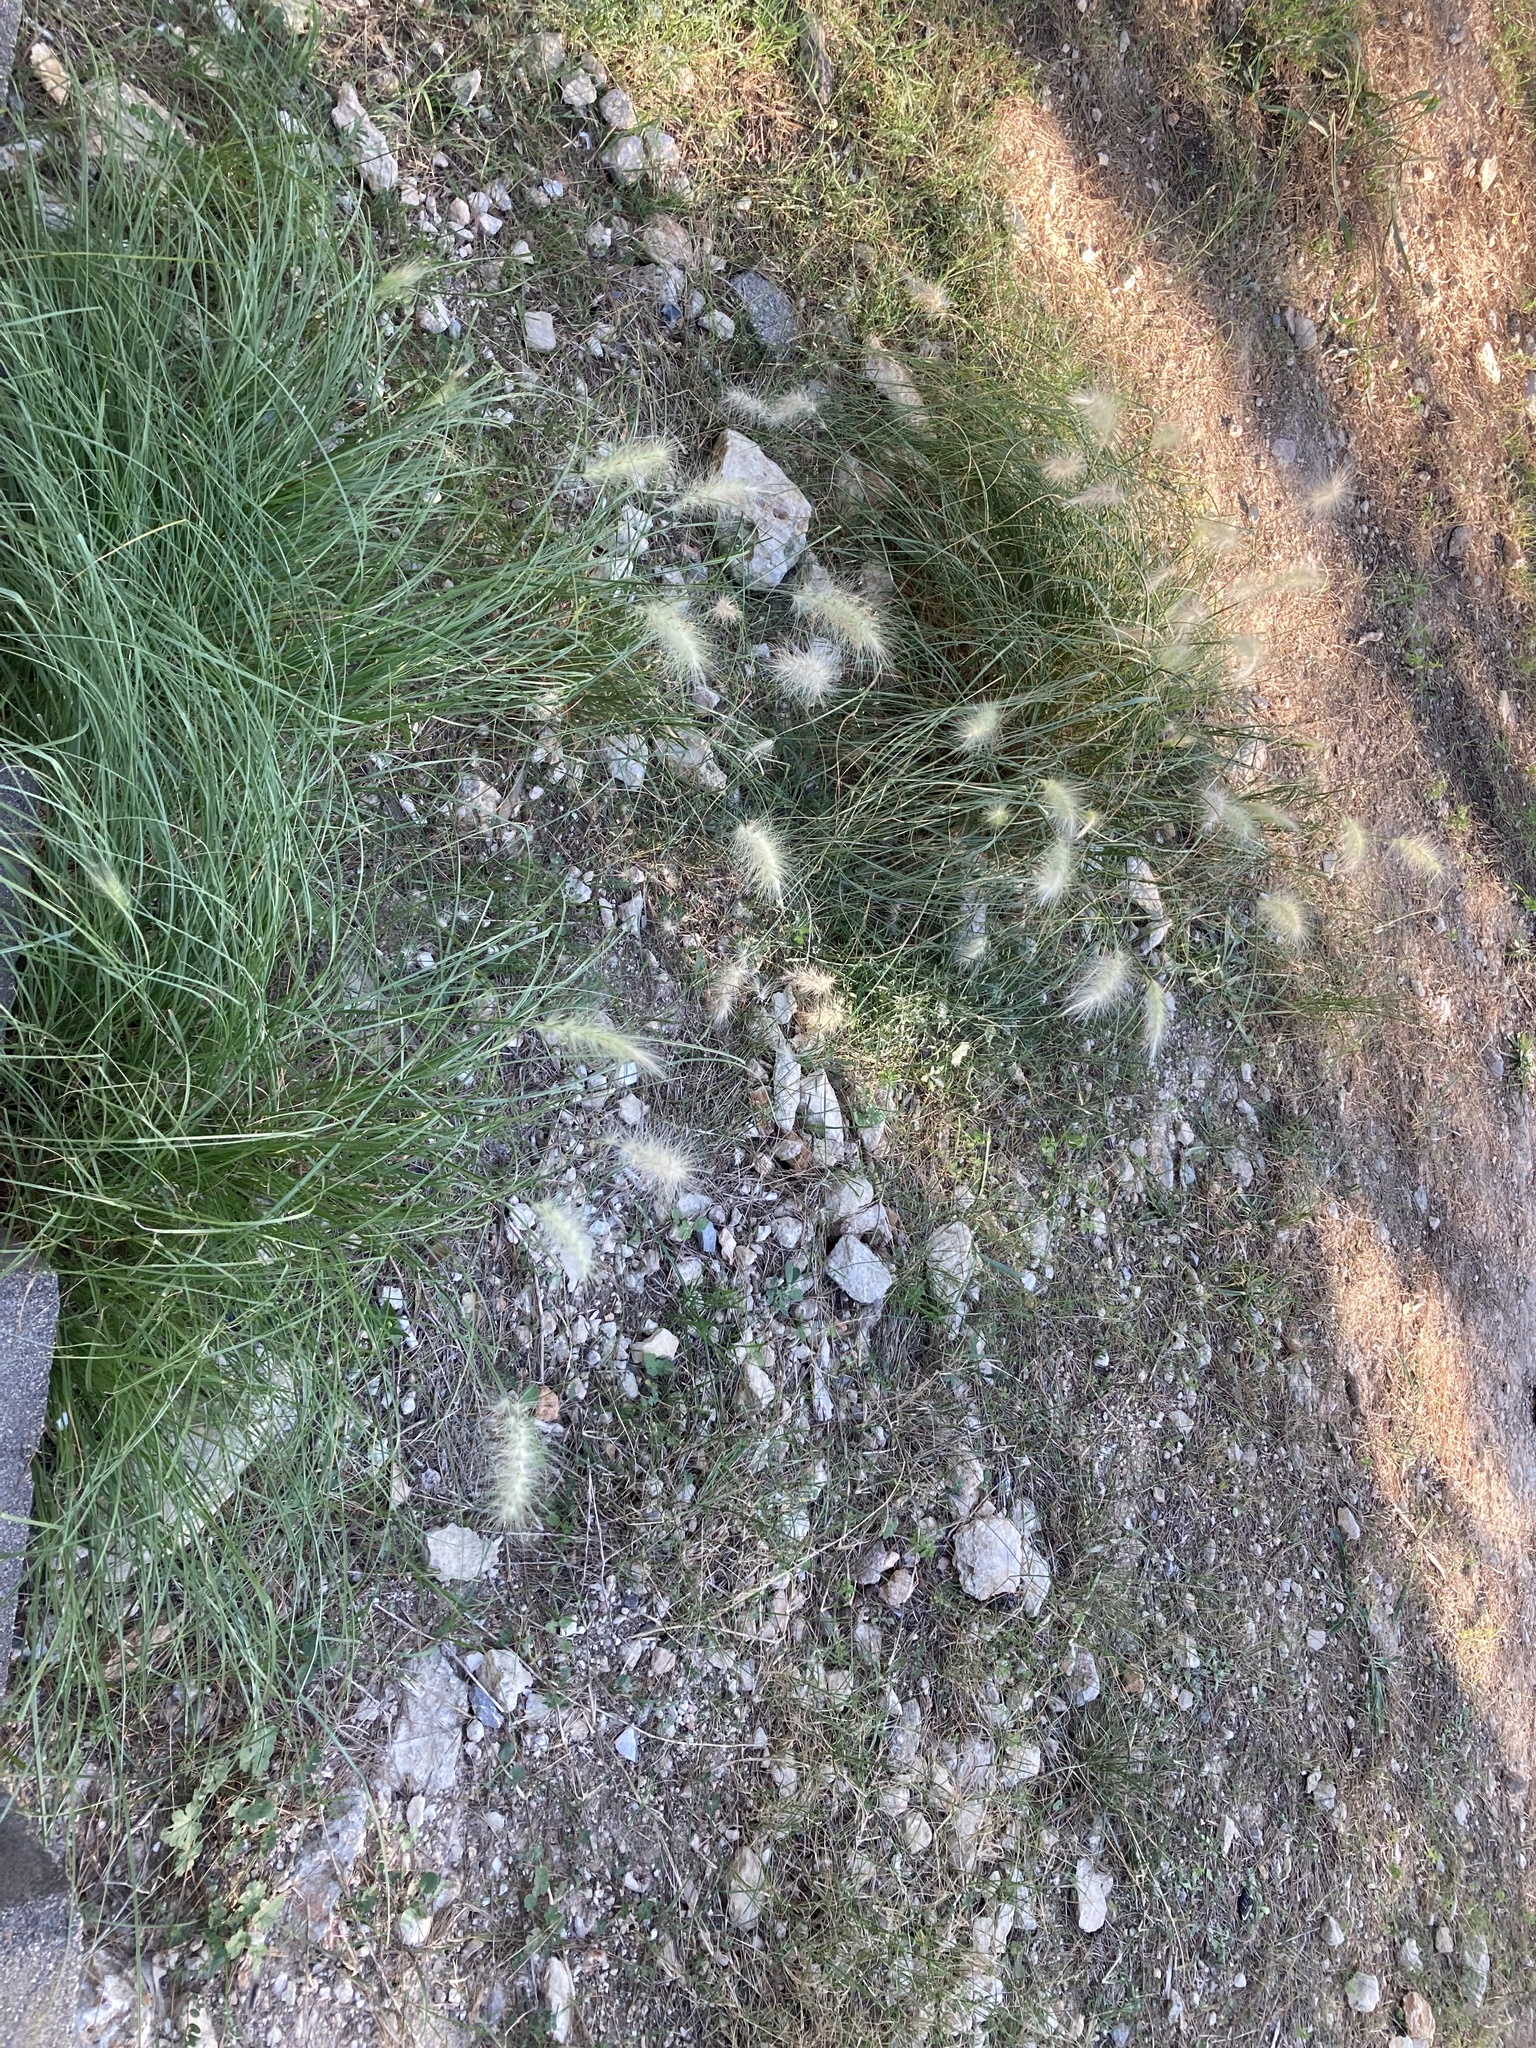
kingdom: Plantae
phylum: Tracheophyta
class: Liliopsida
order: Poales
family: Poaceae
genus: Cenchrus
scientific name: Cenchrus longisetus
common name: Feathertop
